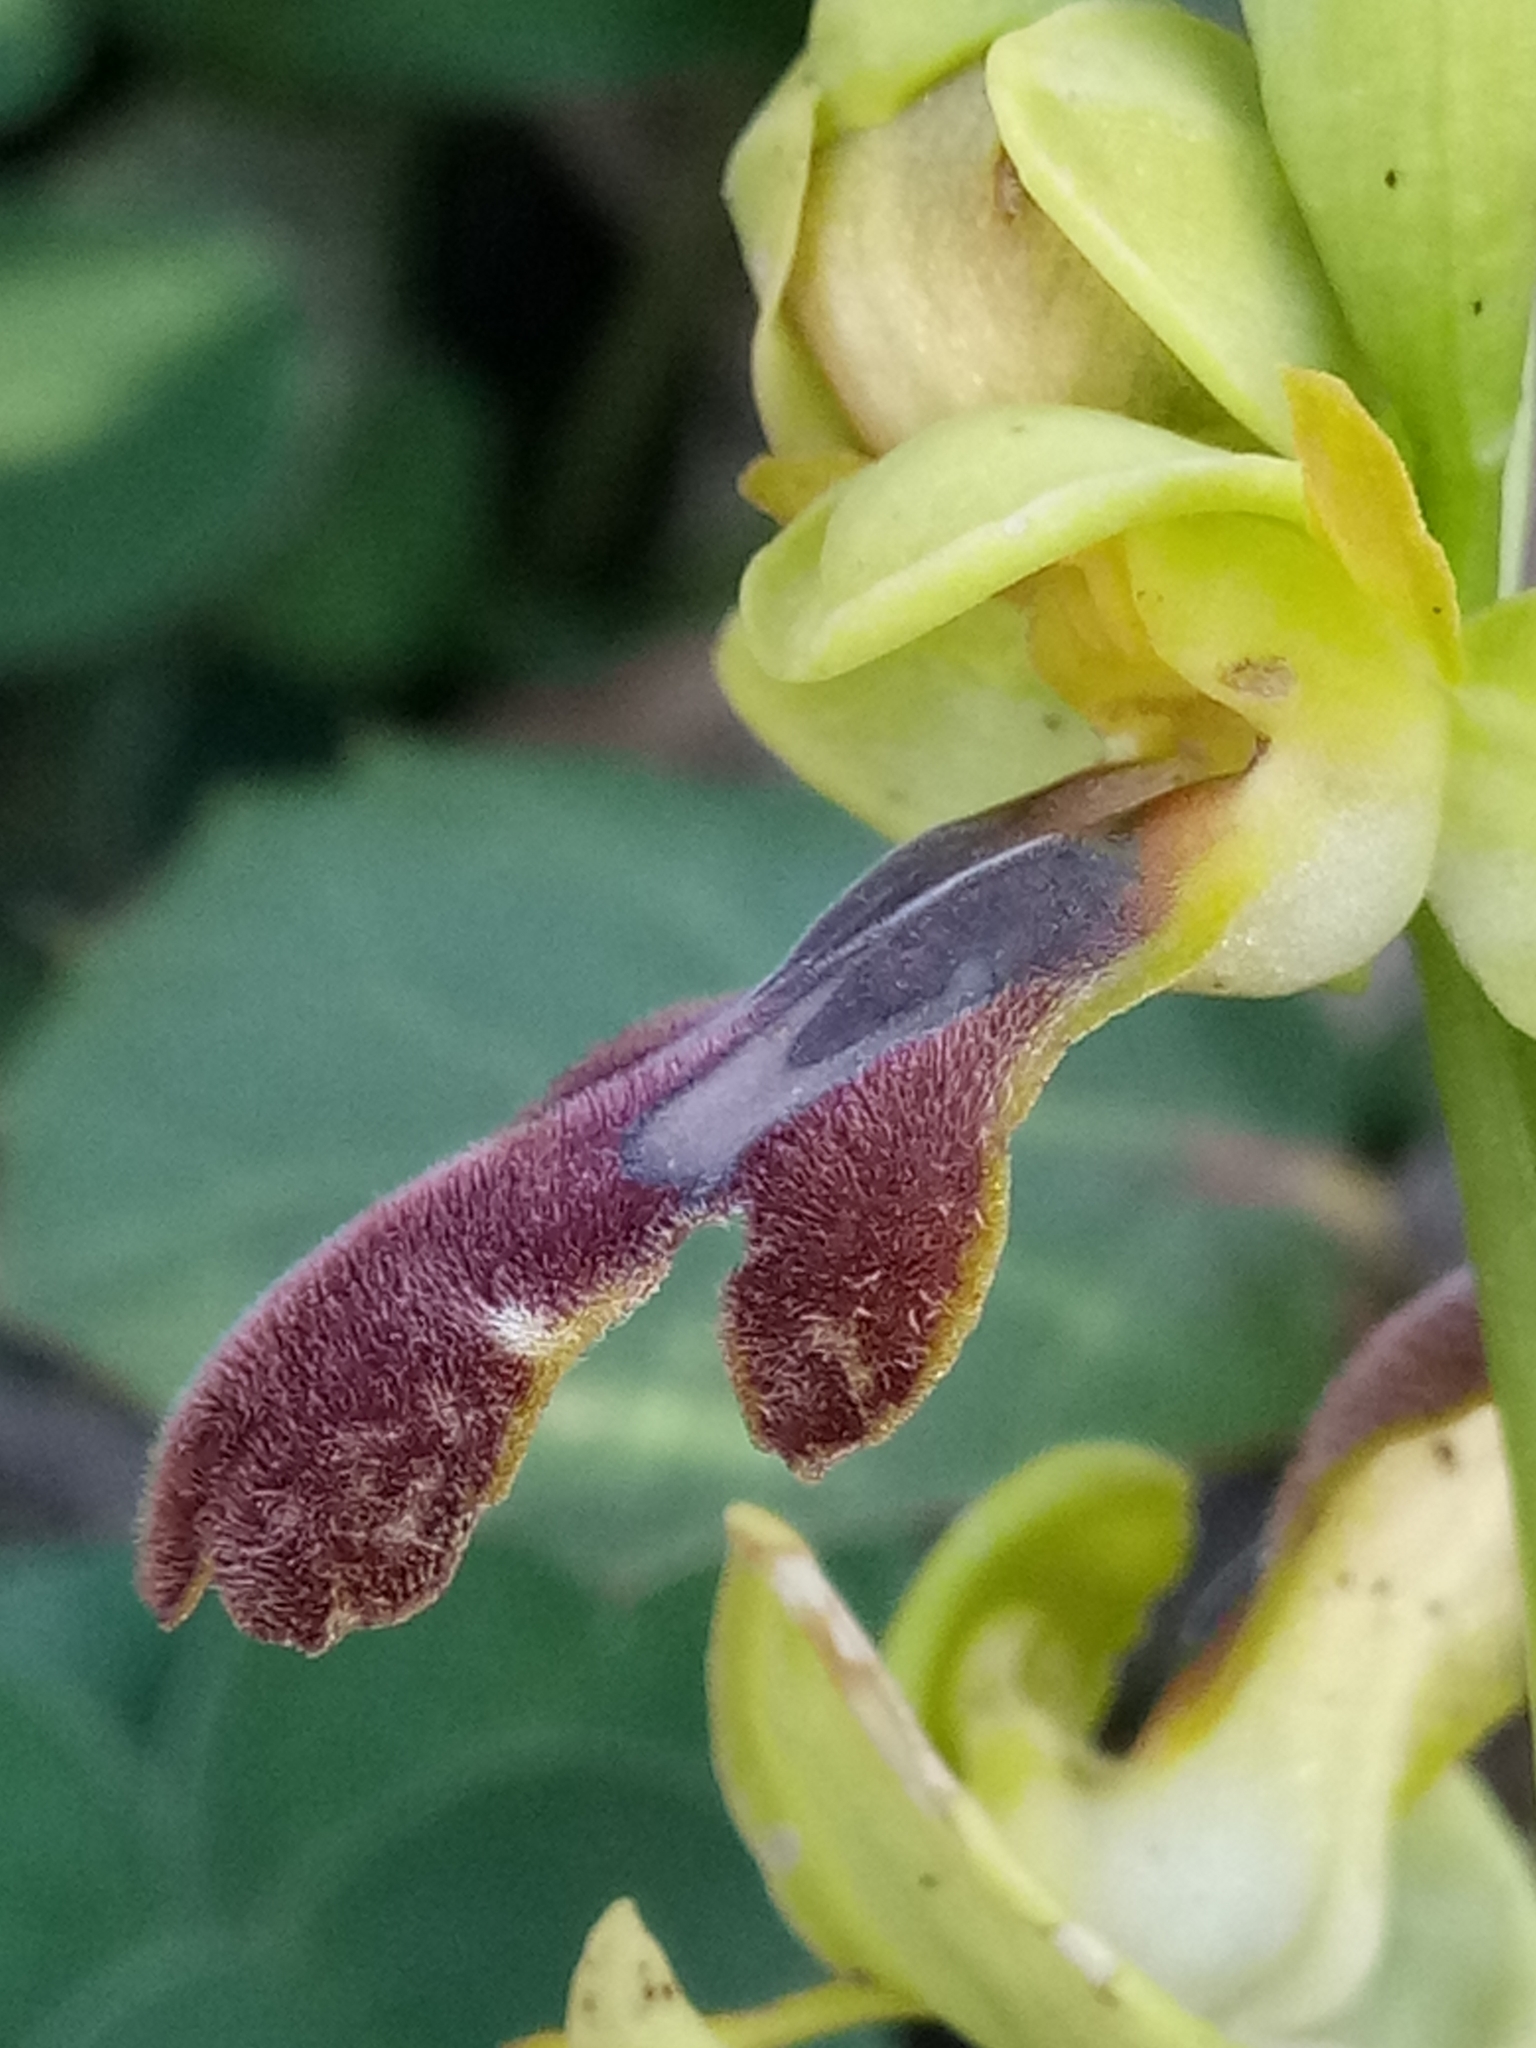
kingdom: Plantae
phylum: Tracheophyta
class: Liliopsida
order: Asparagales
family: Orchidaceae
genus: Ophrys
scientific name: Ophrys fusca
